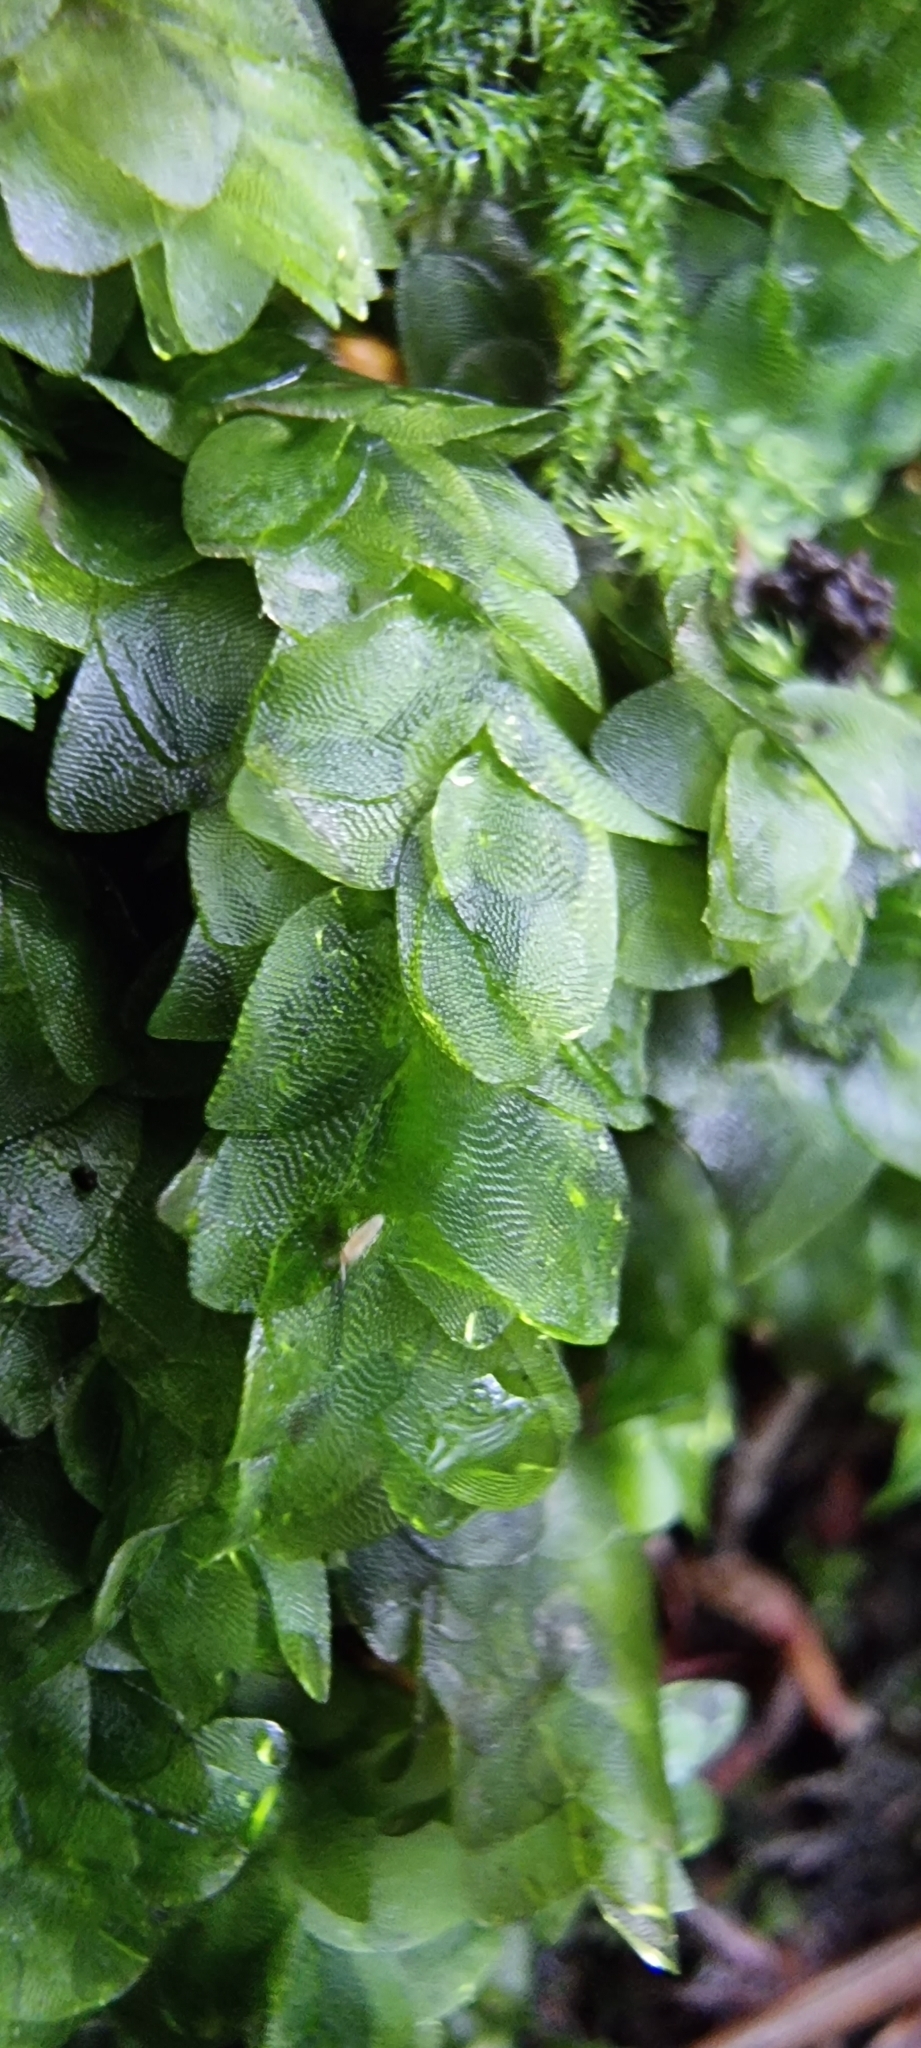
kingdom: Plantae
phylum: Bryophyta
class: Bryopsida
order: Hookeriales
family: Hookeriaceae
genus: Hookeria
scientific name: Hookeria lucens
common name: Shining hookeria
